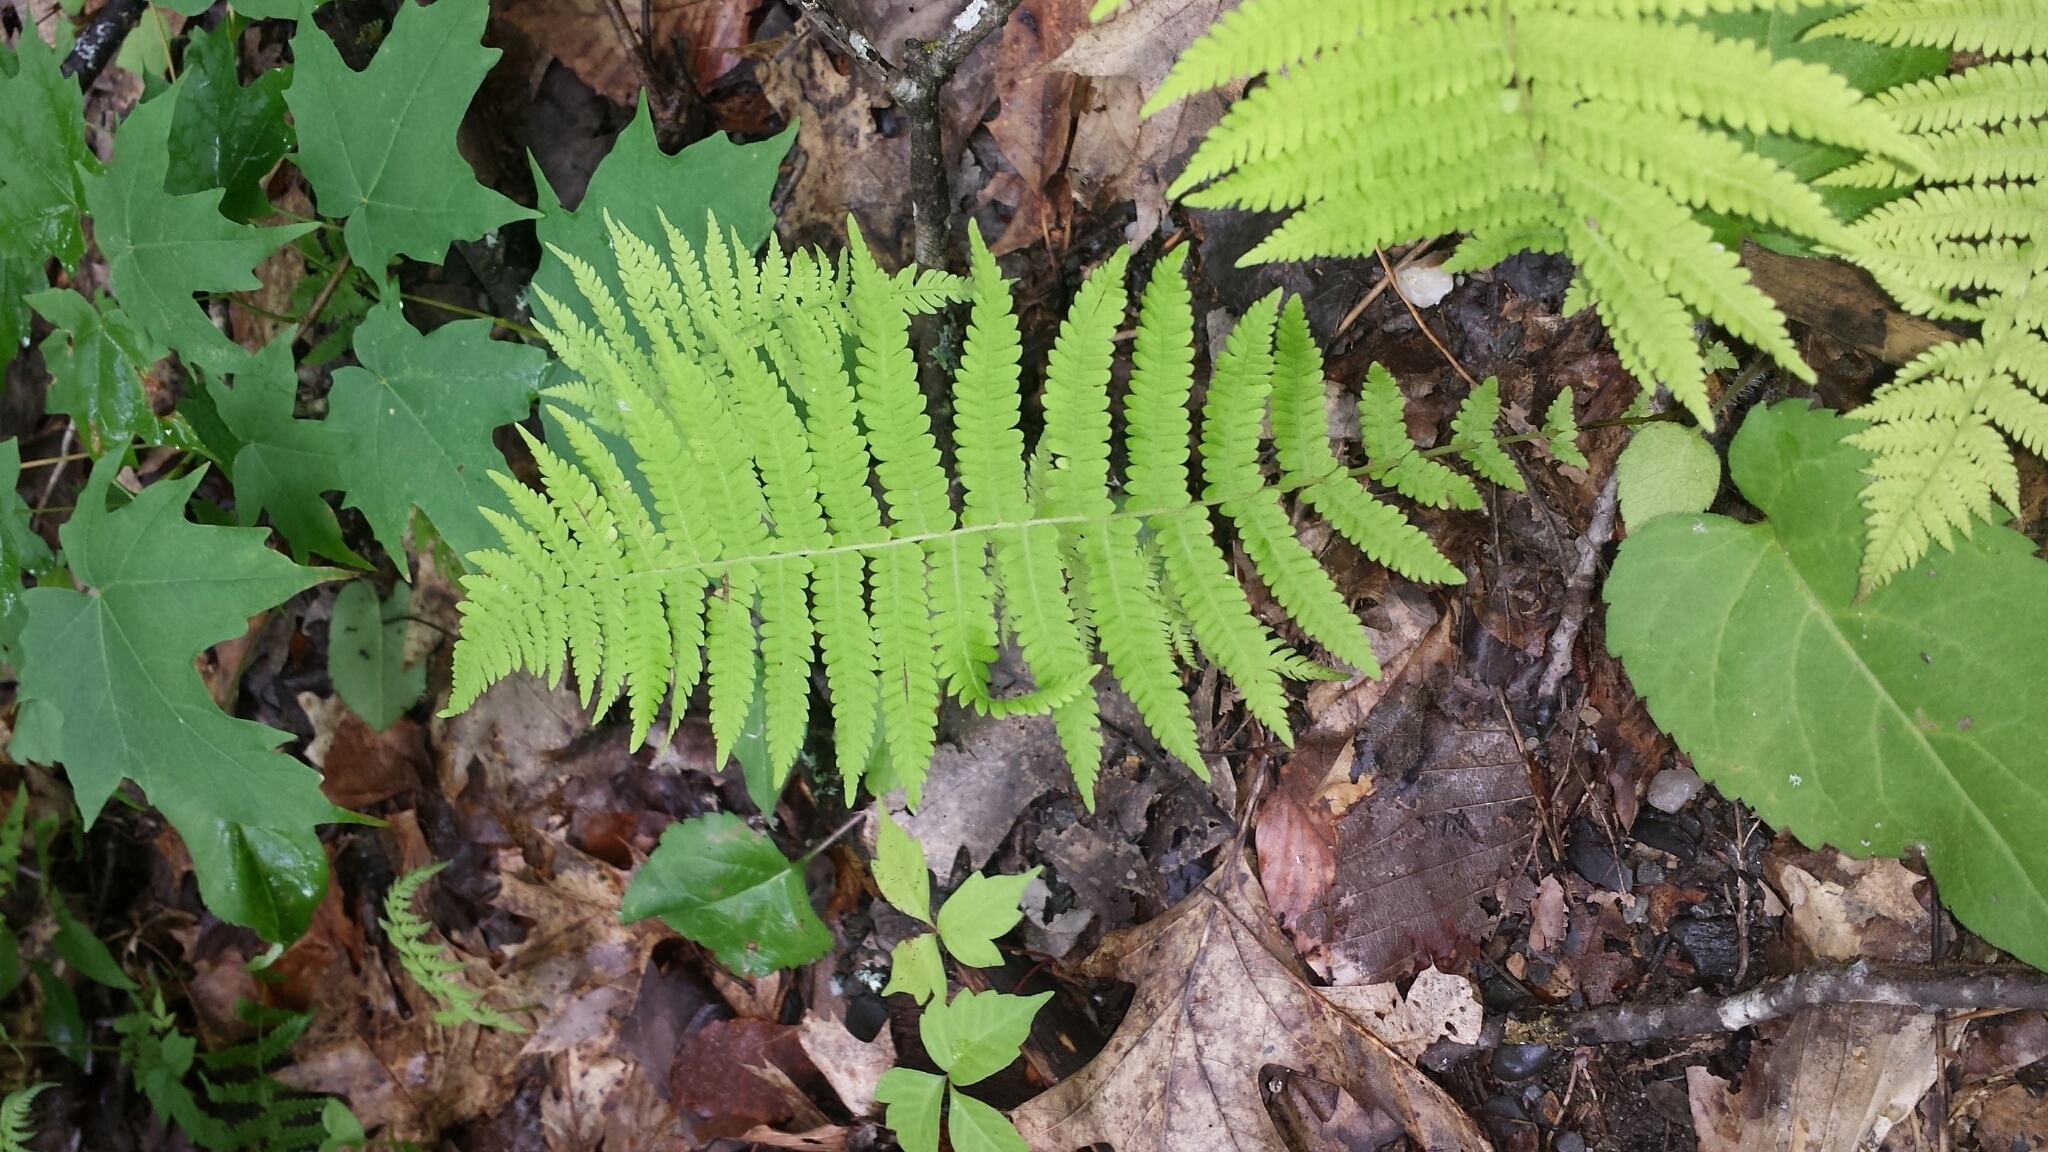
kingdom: Plantae
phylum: Tracheophyta
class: Polypodiopsida
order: Polypodiales
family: Thelypteridaceae
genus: Amauropelta
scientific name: Amauropelta noveboracensis
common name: New york fern
